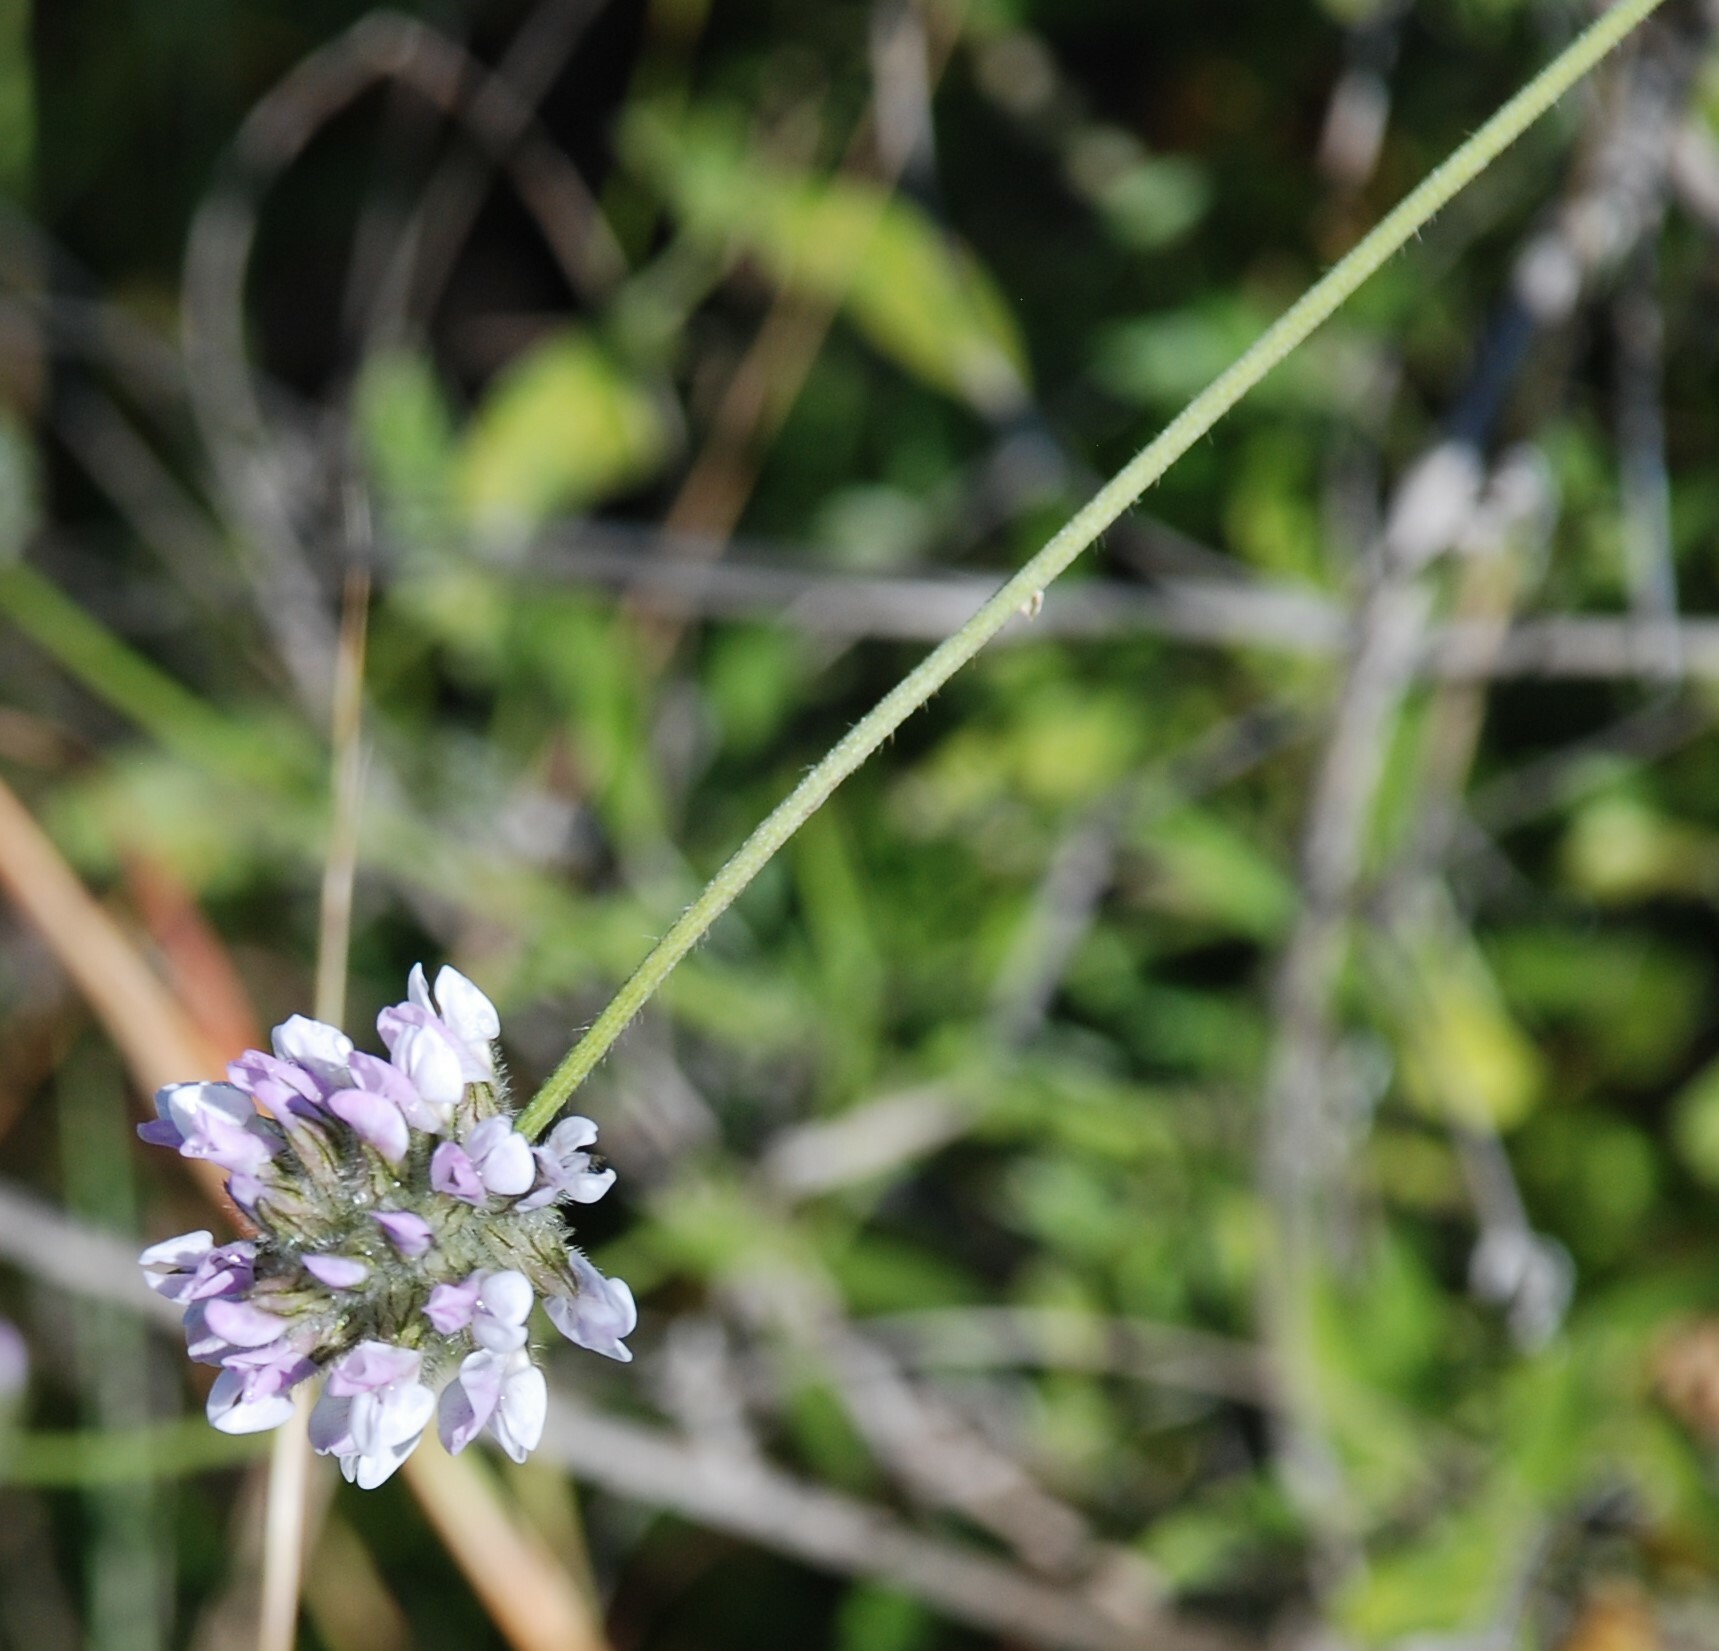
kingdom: Plantae
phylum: Tracheophyta
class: Magnoliopsida
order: Fabales
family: Fabaceae
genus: Bituminaria
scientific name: Bituminaria bituminosa
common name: Arabian pea
